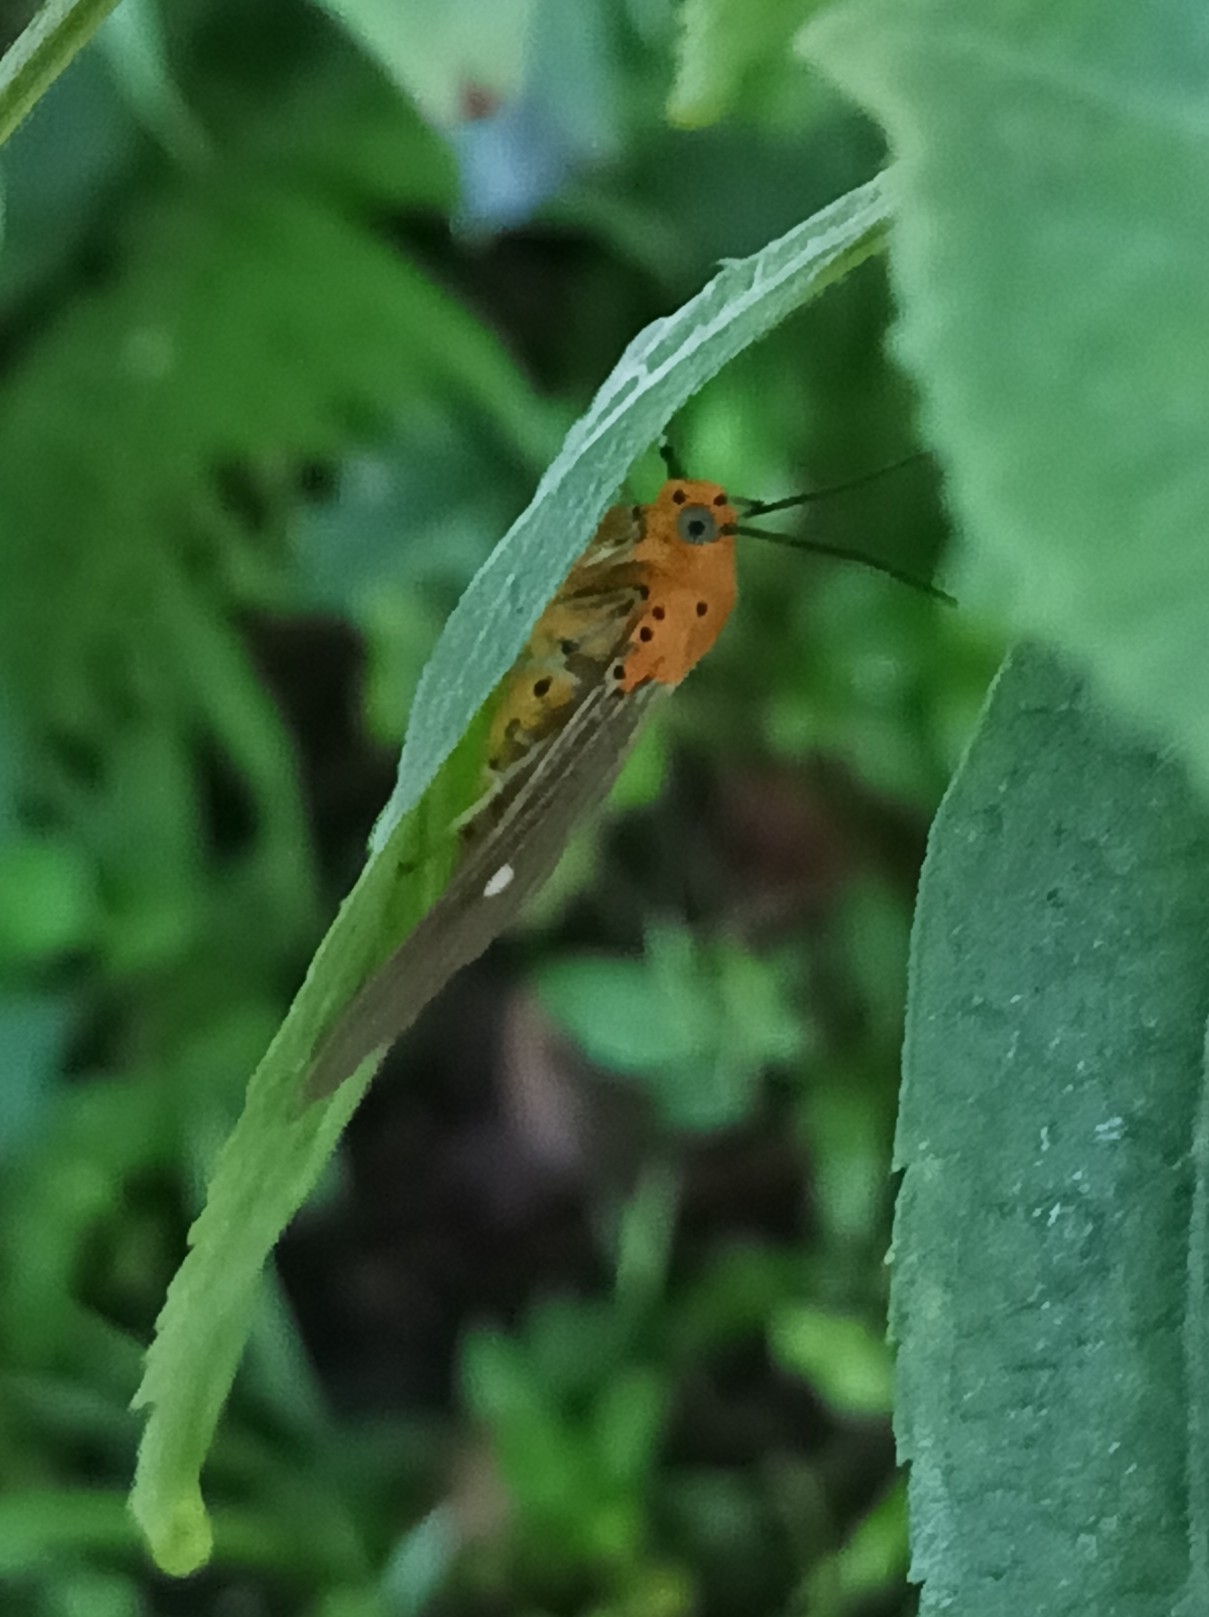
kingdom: Animalia
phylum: Arthropoda
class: Insecta
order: Lepidoptera
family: Erebidae
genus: Asota
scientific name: Asota caricae
